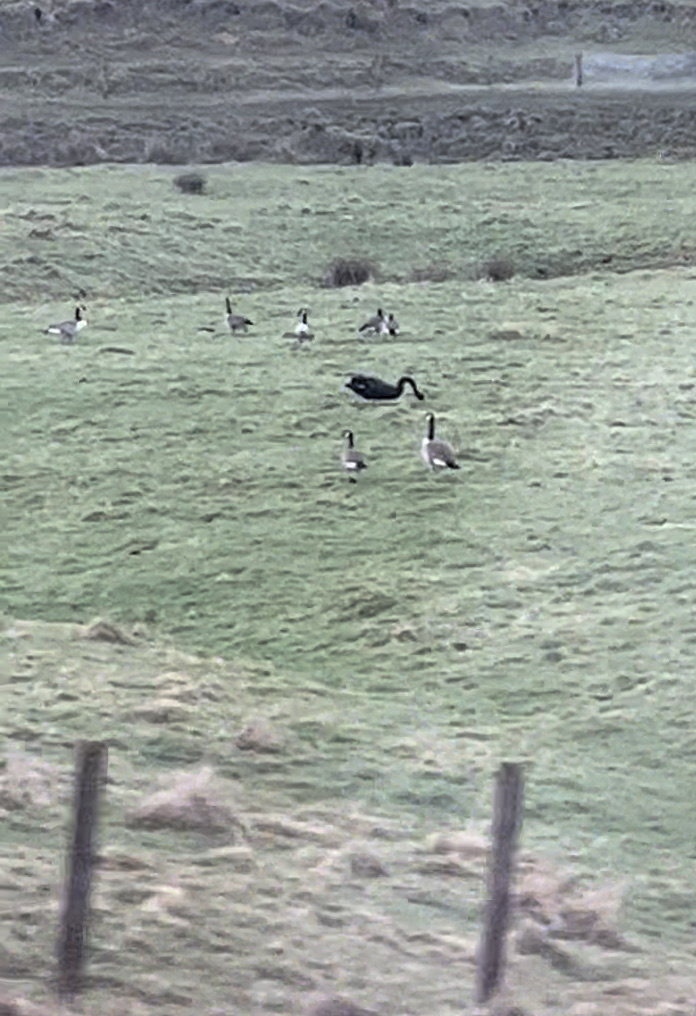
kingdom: Animalia
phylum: Chordata
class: Aves
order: Anseriformes
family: Anatidae
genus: Branta
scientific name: Branta canadensis
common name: Canada goose
